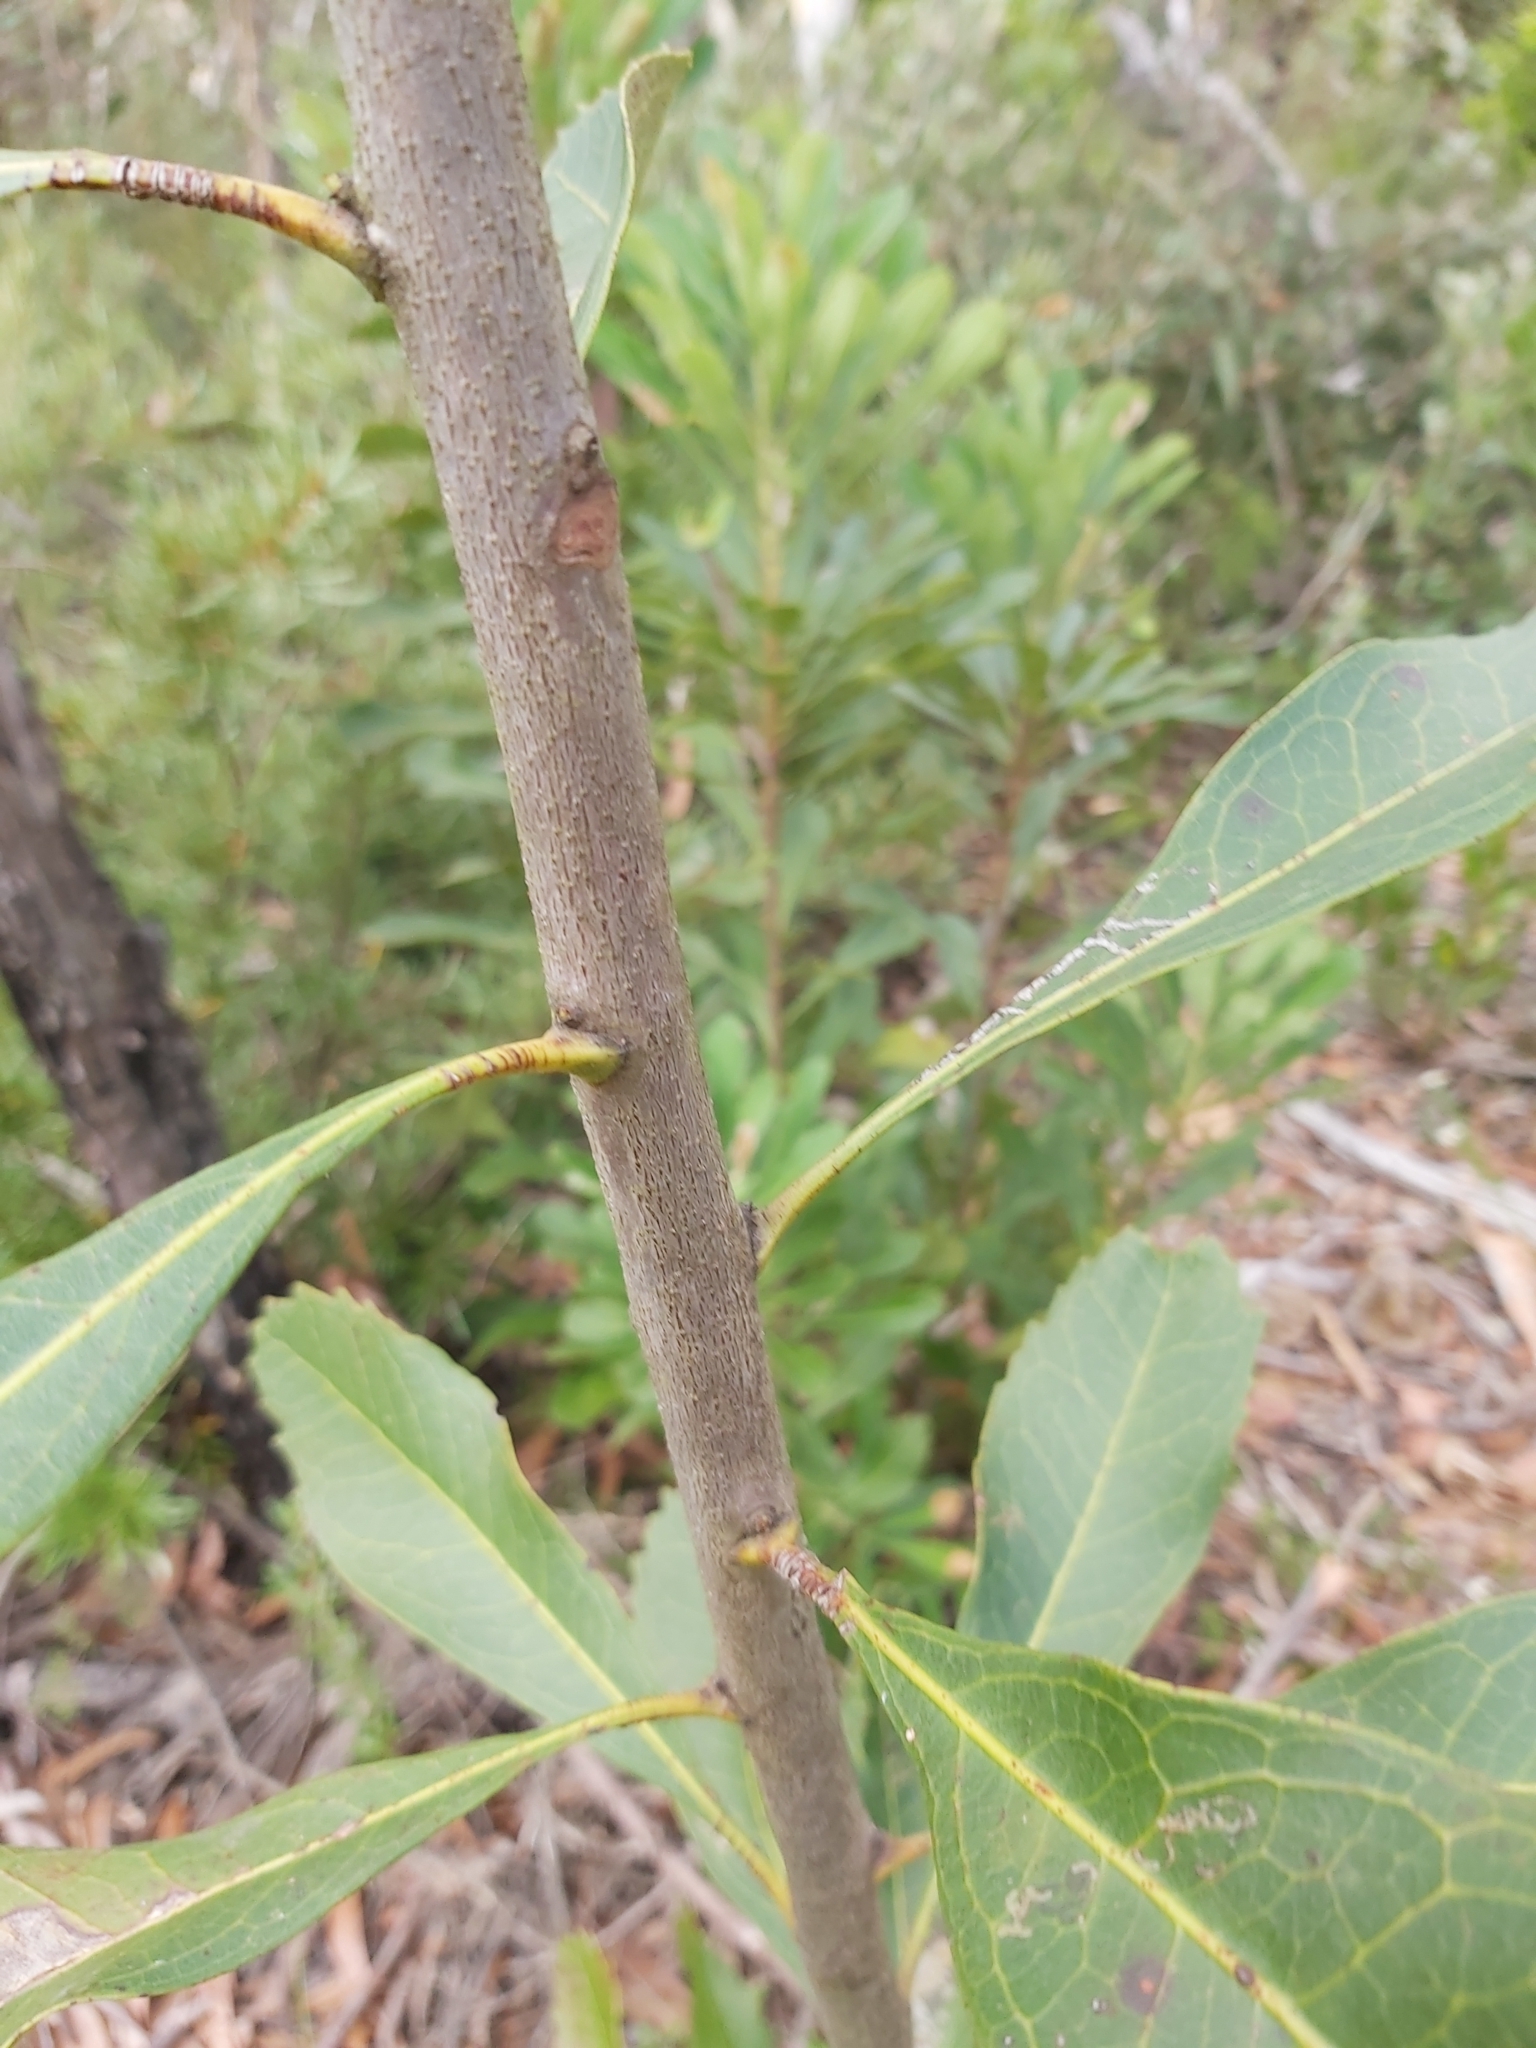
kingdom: Plantae
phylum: Tracheophyta
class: Magnoliopsida
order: Proteales
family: Proteaceae
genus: Telopea
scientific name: Telopea speciosissima
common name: New south wales waratah
